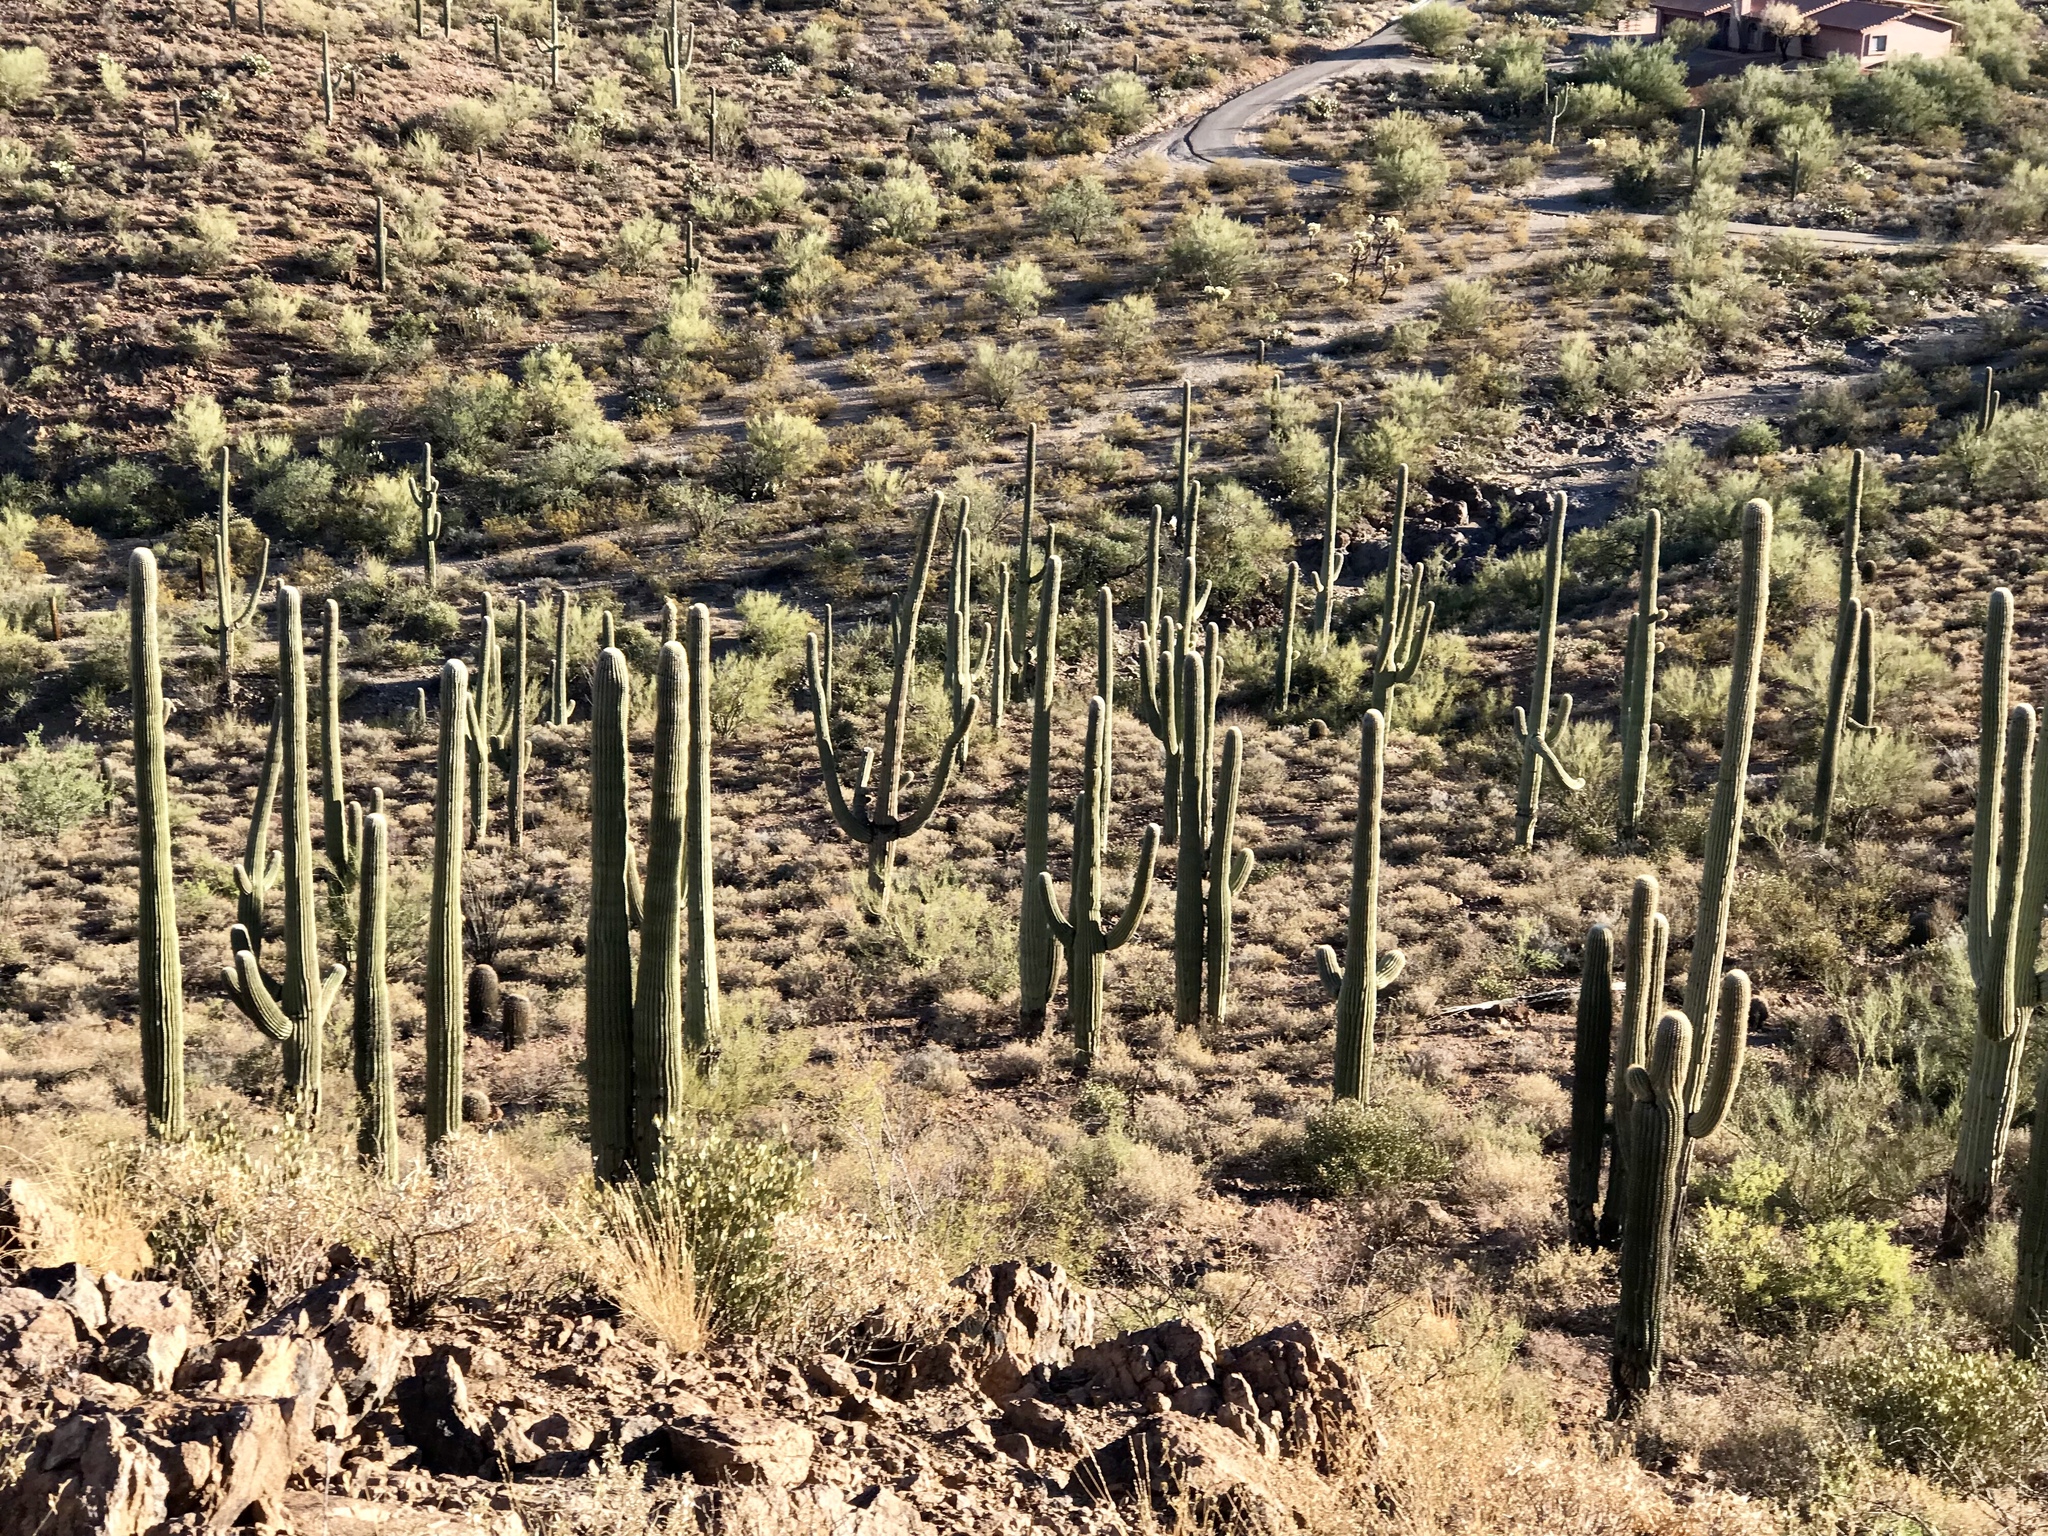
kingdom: Plantae
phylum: Tracheophyta
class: Magnoliopsida
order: Caryophyllales
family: Cactaceae
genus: Carnegiea
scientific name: Carnegiea gigantea
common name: Saguaro
